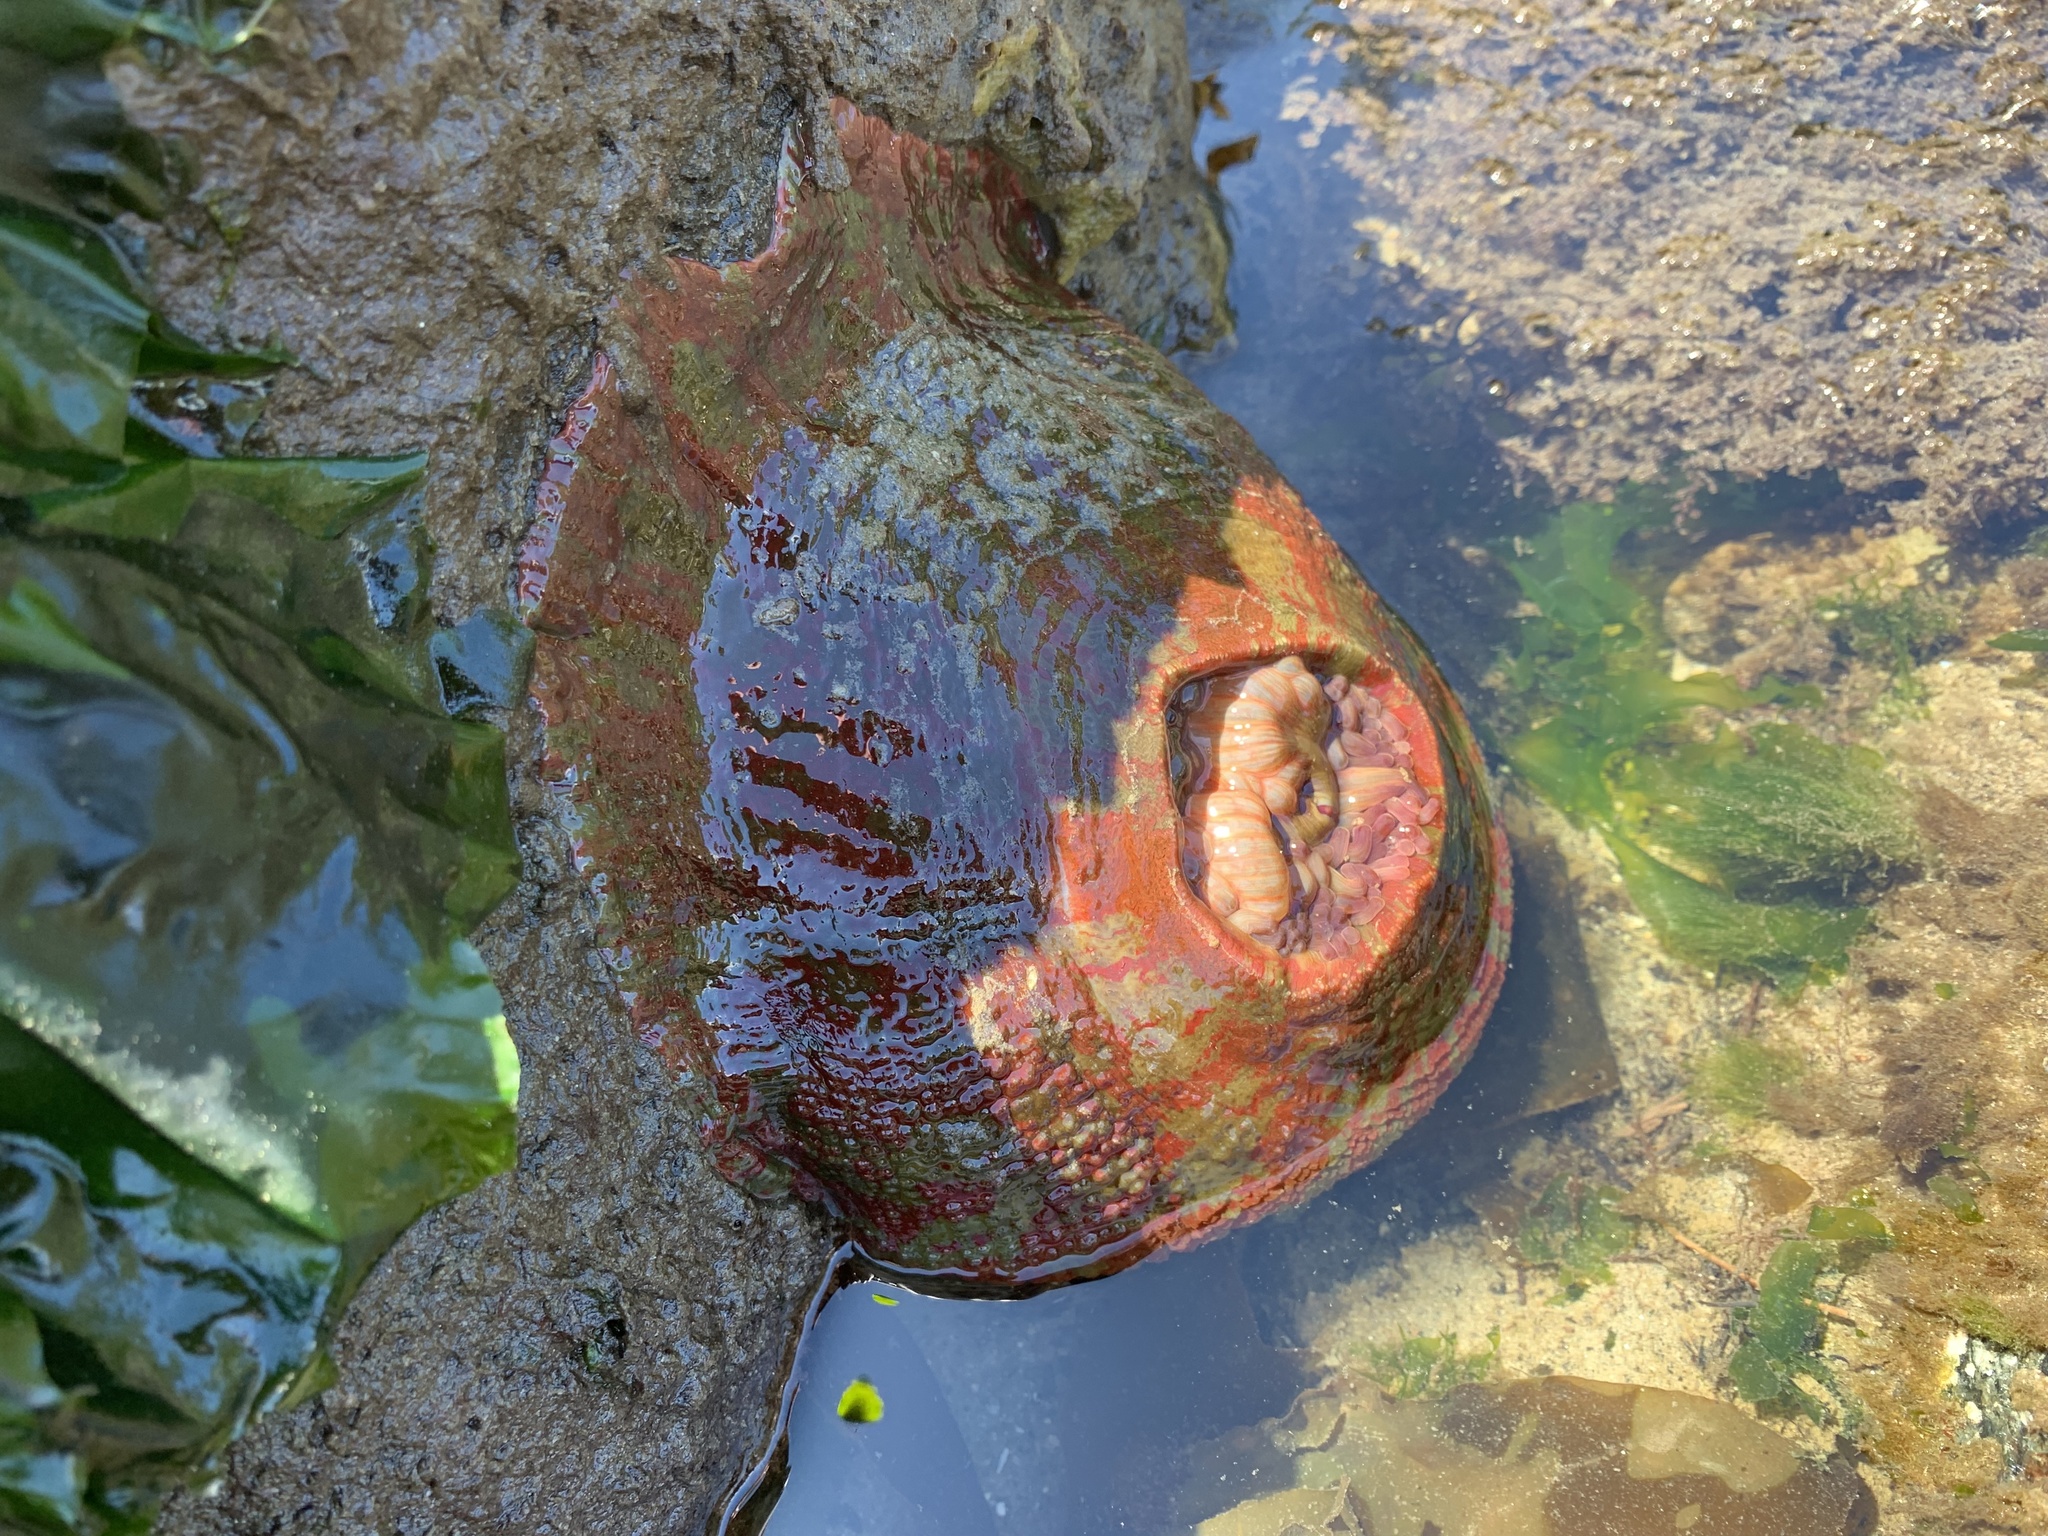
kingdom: Animalia
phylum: Cnidaria
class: Anthozoa
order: Actiniaria
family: Actiniidae
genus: Urticina
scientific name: Urticina grebelnyi
